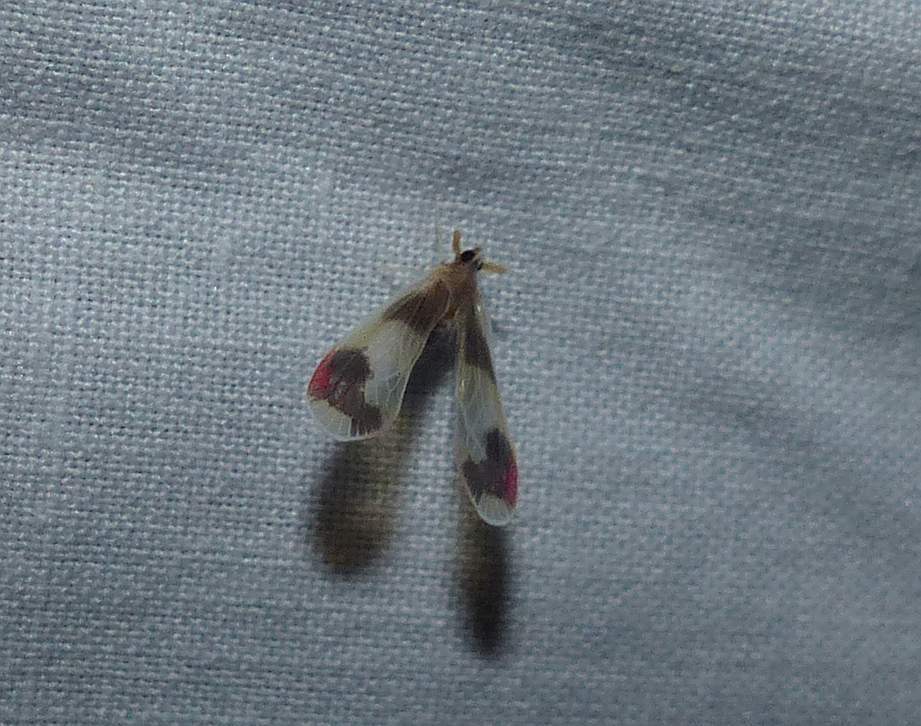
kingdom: Animalia
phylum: Arthropoda
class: Insecta
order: Hemiptera
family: Derbidae
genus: Anotia
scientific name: Anotia uhleri
